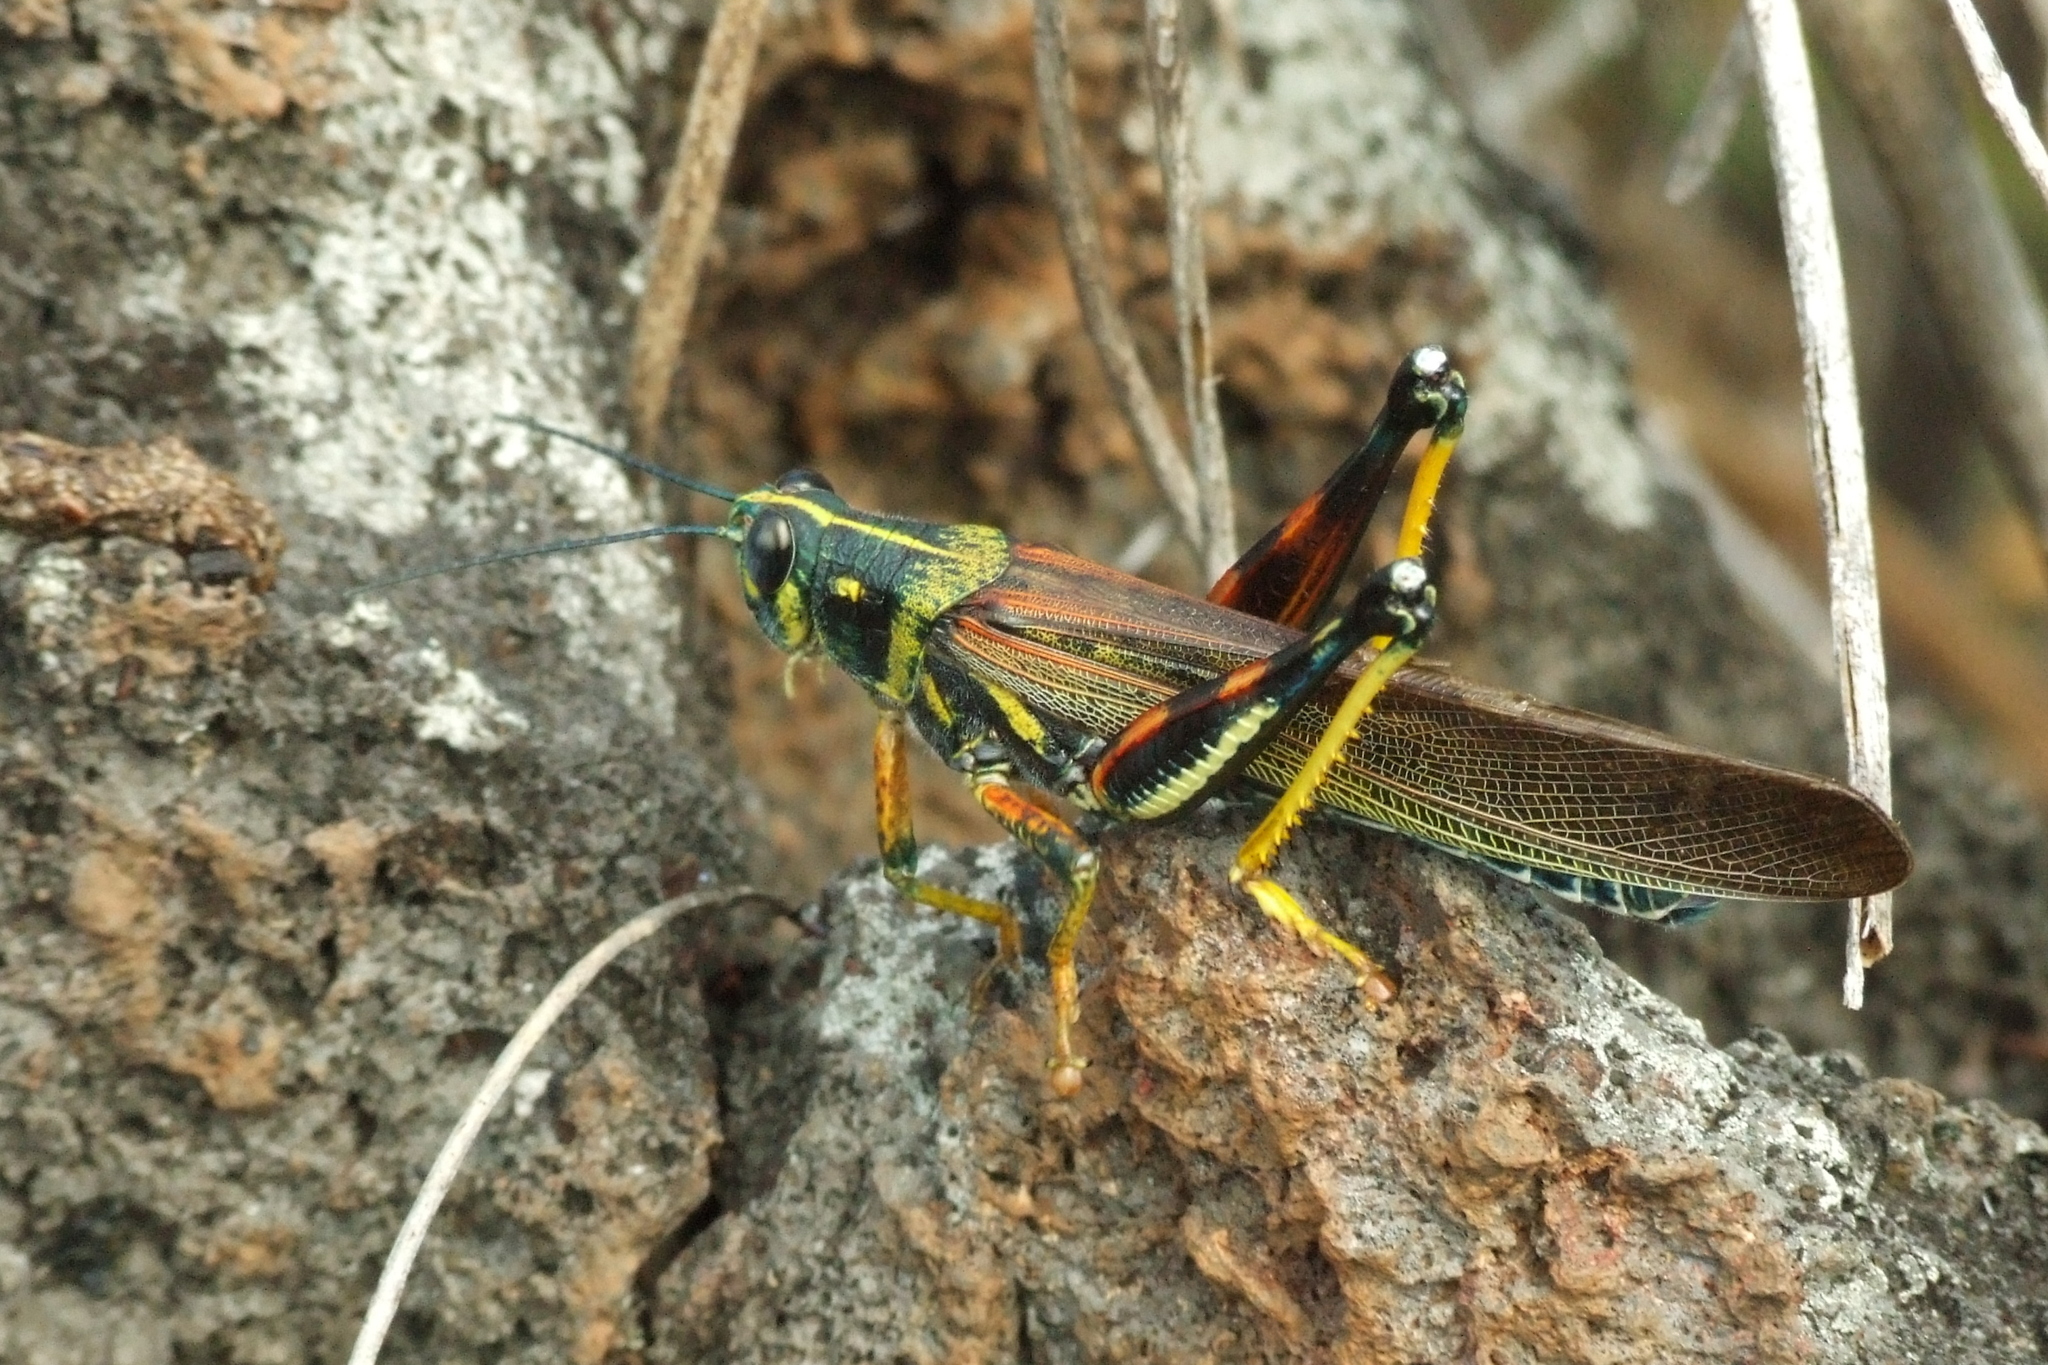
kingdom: Animalia
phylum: Arthropoda
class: Insecta
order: Orthoptera
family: Acrididae
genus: Schistocerca
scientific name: Schistocerca melanocera
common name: Large painted locust
